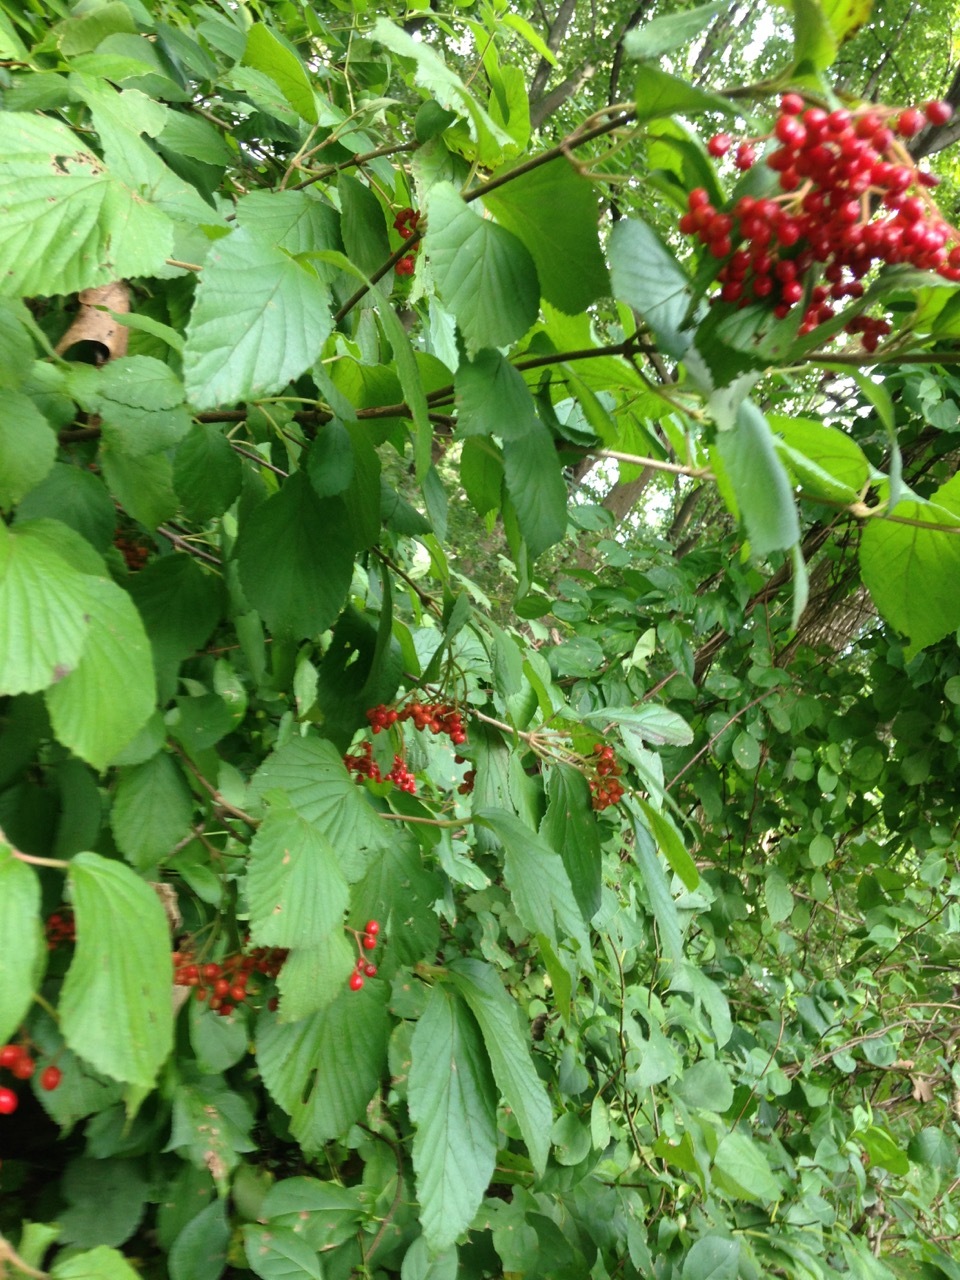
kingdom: Plantae
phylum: Tracheophyta
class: Magnoliopsida
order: Dipsacales
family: Viburnaceae
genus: Viburnum
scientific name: Viburnum dilatatum
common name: Linden arrowwood
